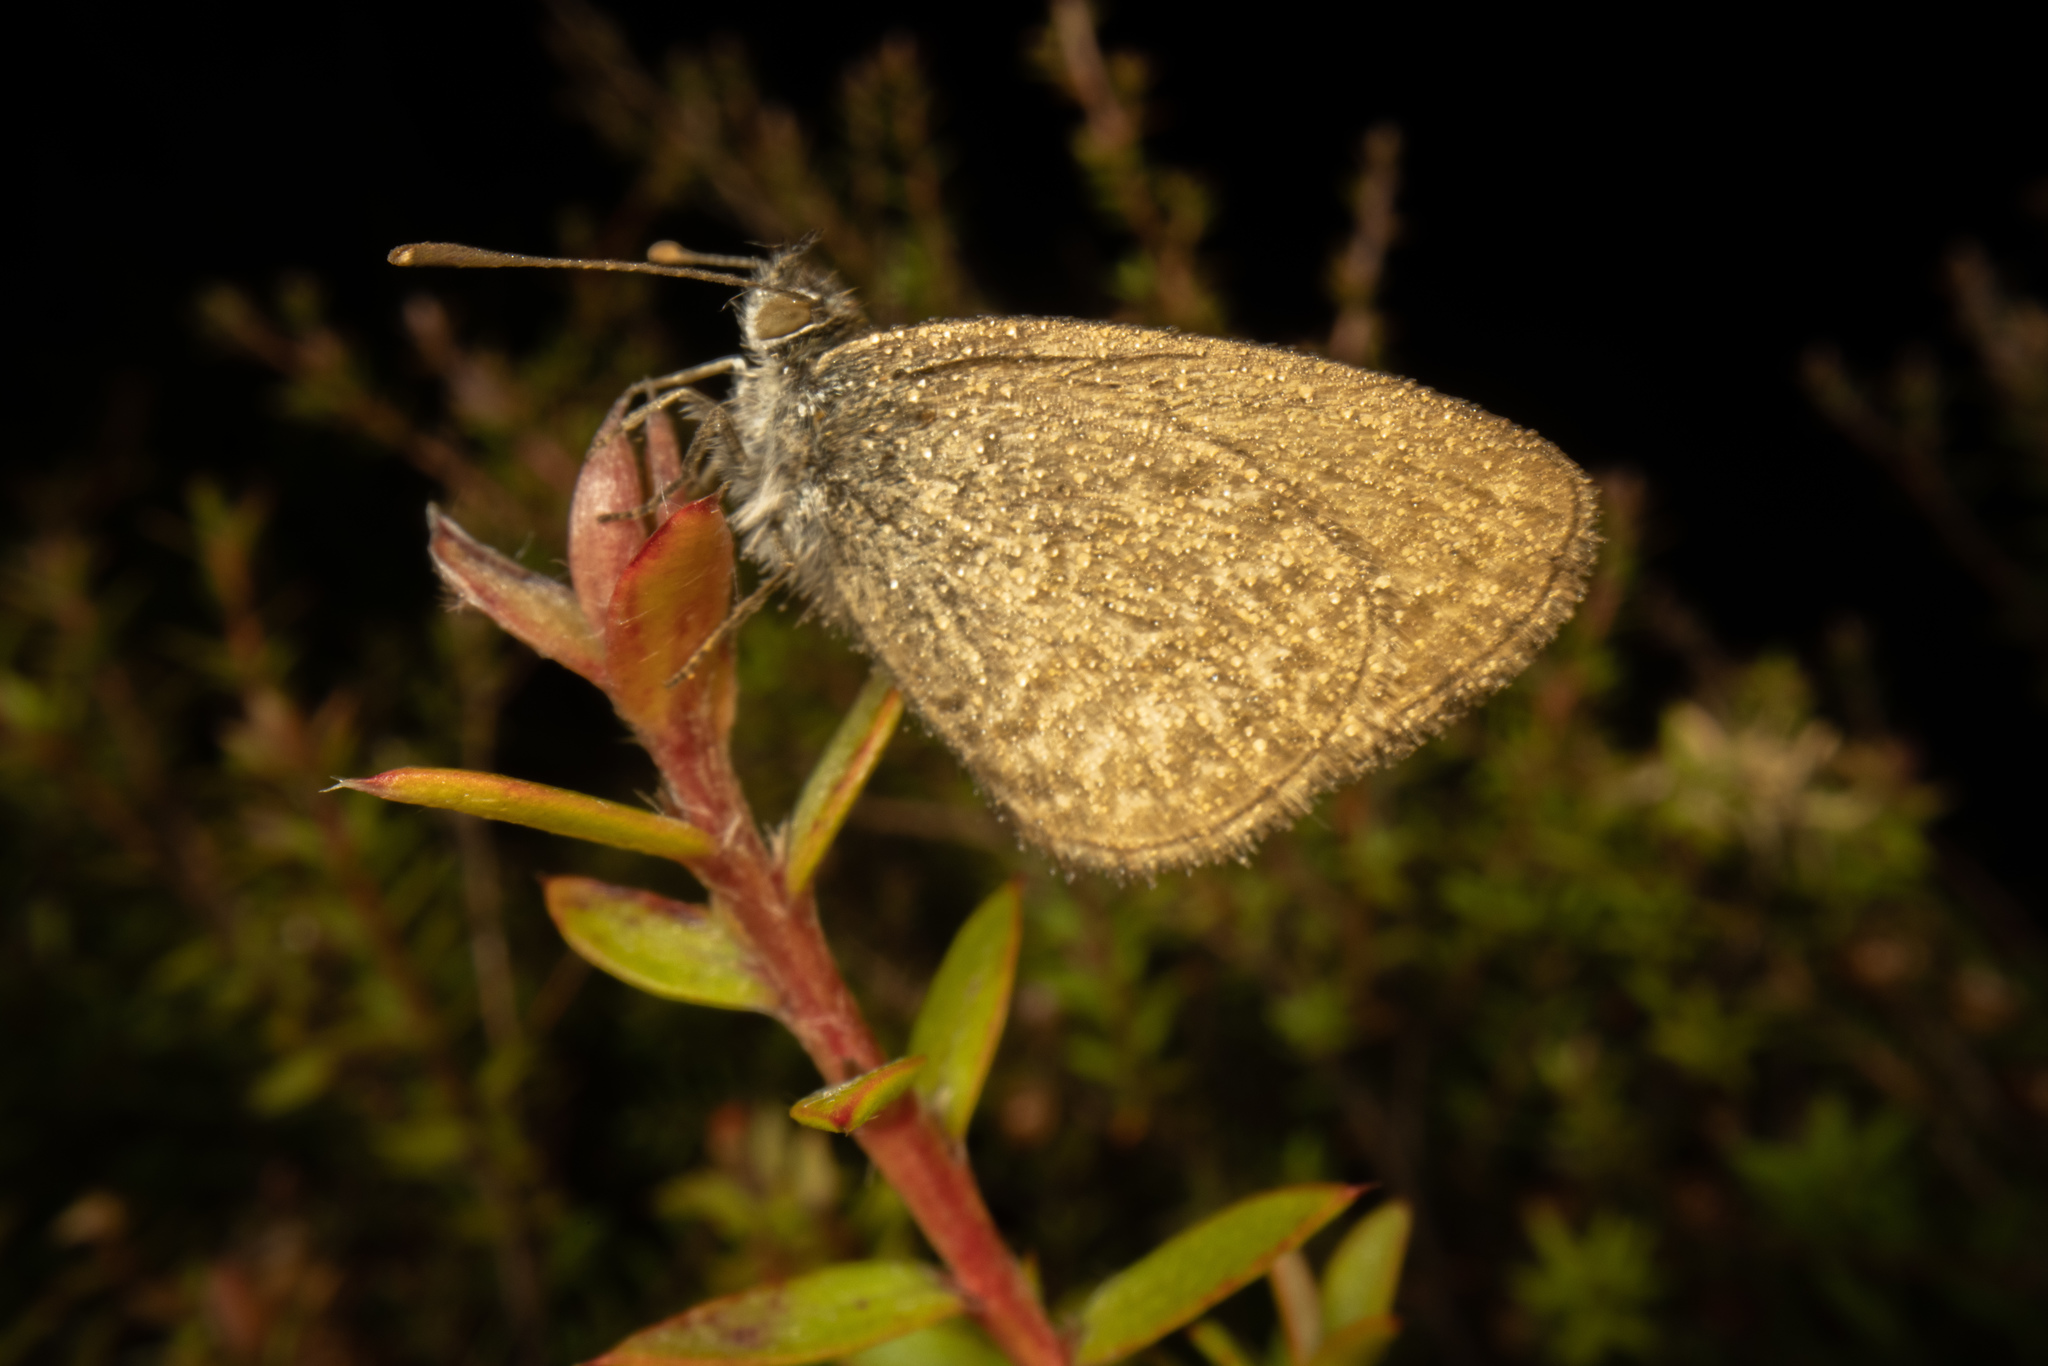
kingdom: Animalia
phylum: Arthropoda
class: Insecta
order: Lepidoptera
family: Lycaenidae
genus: Zizina
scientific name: Zizina labradus
